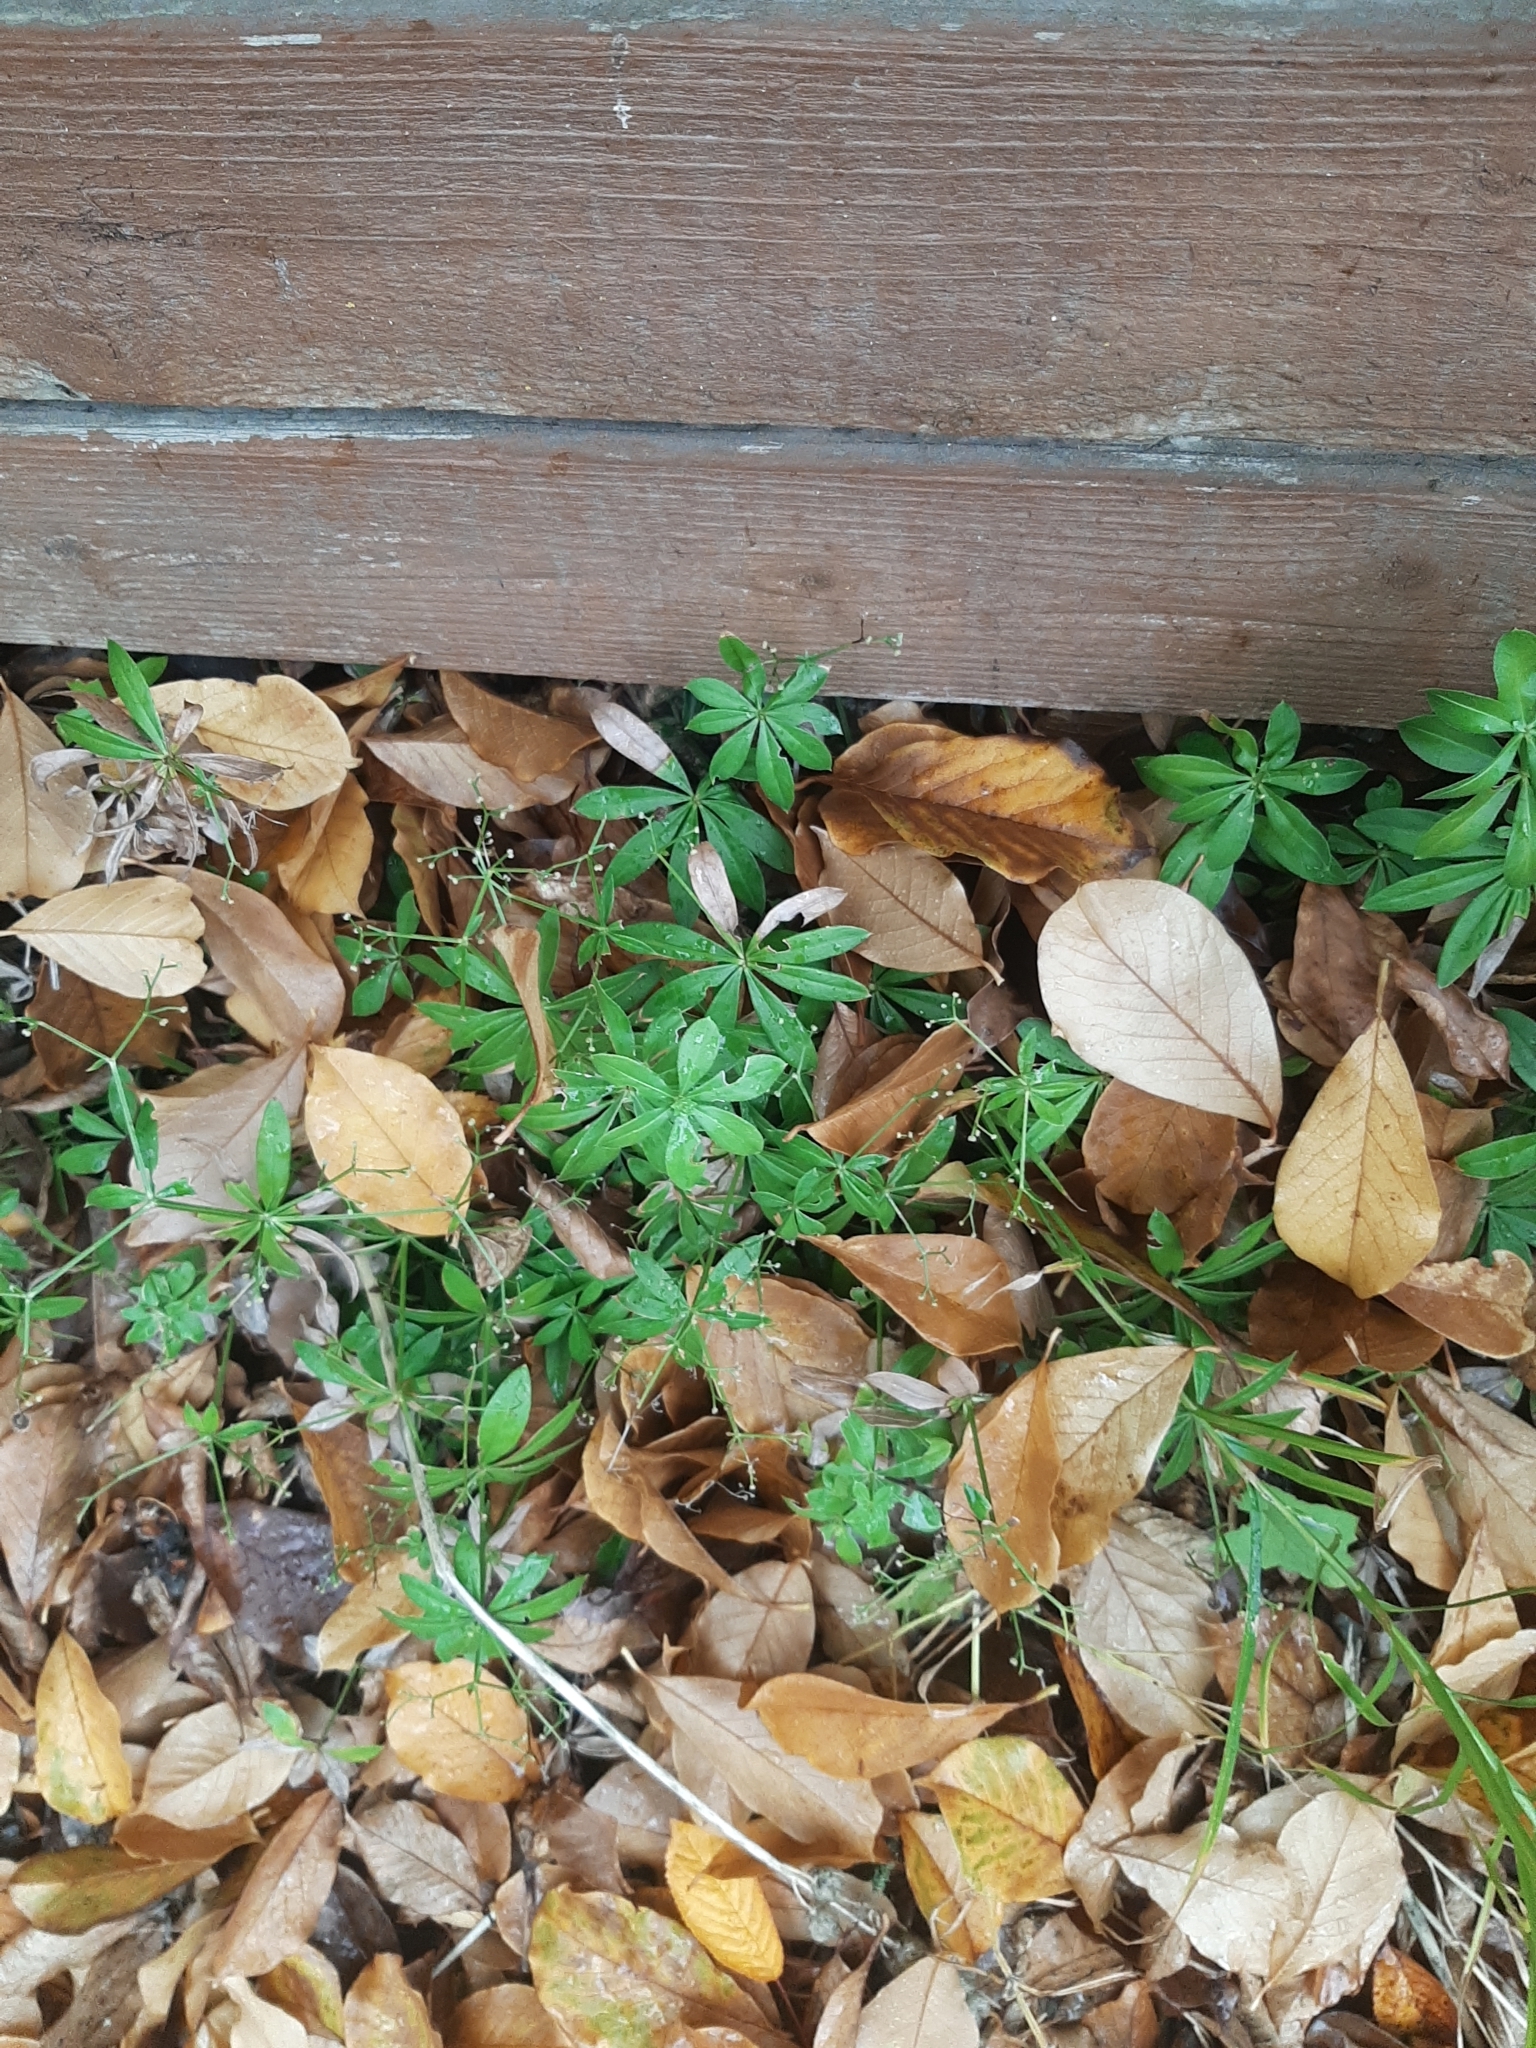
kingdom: Plantae
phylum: Tracheophyta
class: Magnoliopsida
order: Gentianales
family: Rubiaceae
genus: Galium
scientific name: Galium odoratum
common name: Sweet woodruff
